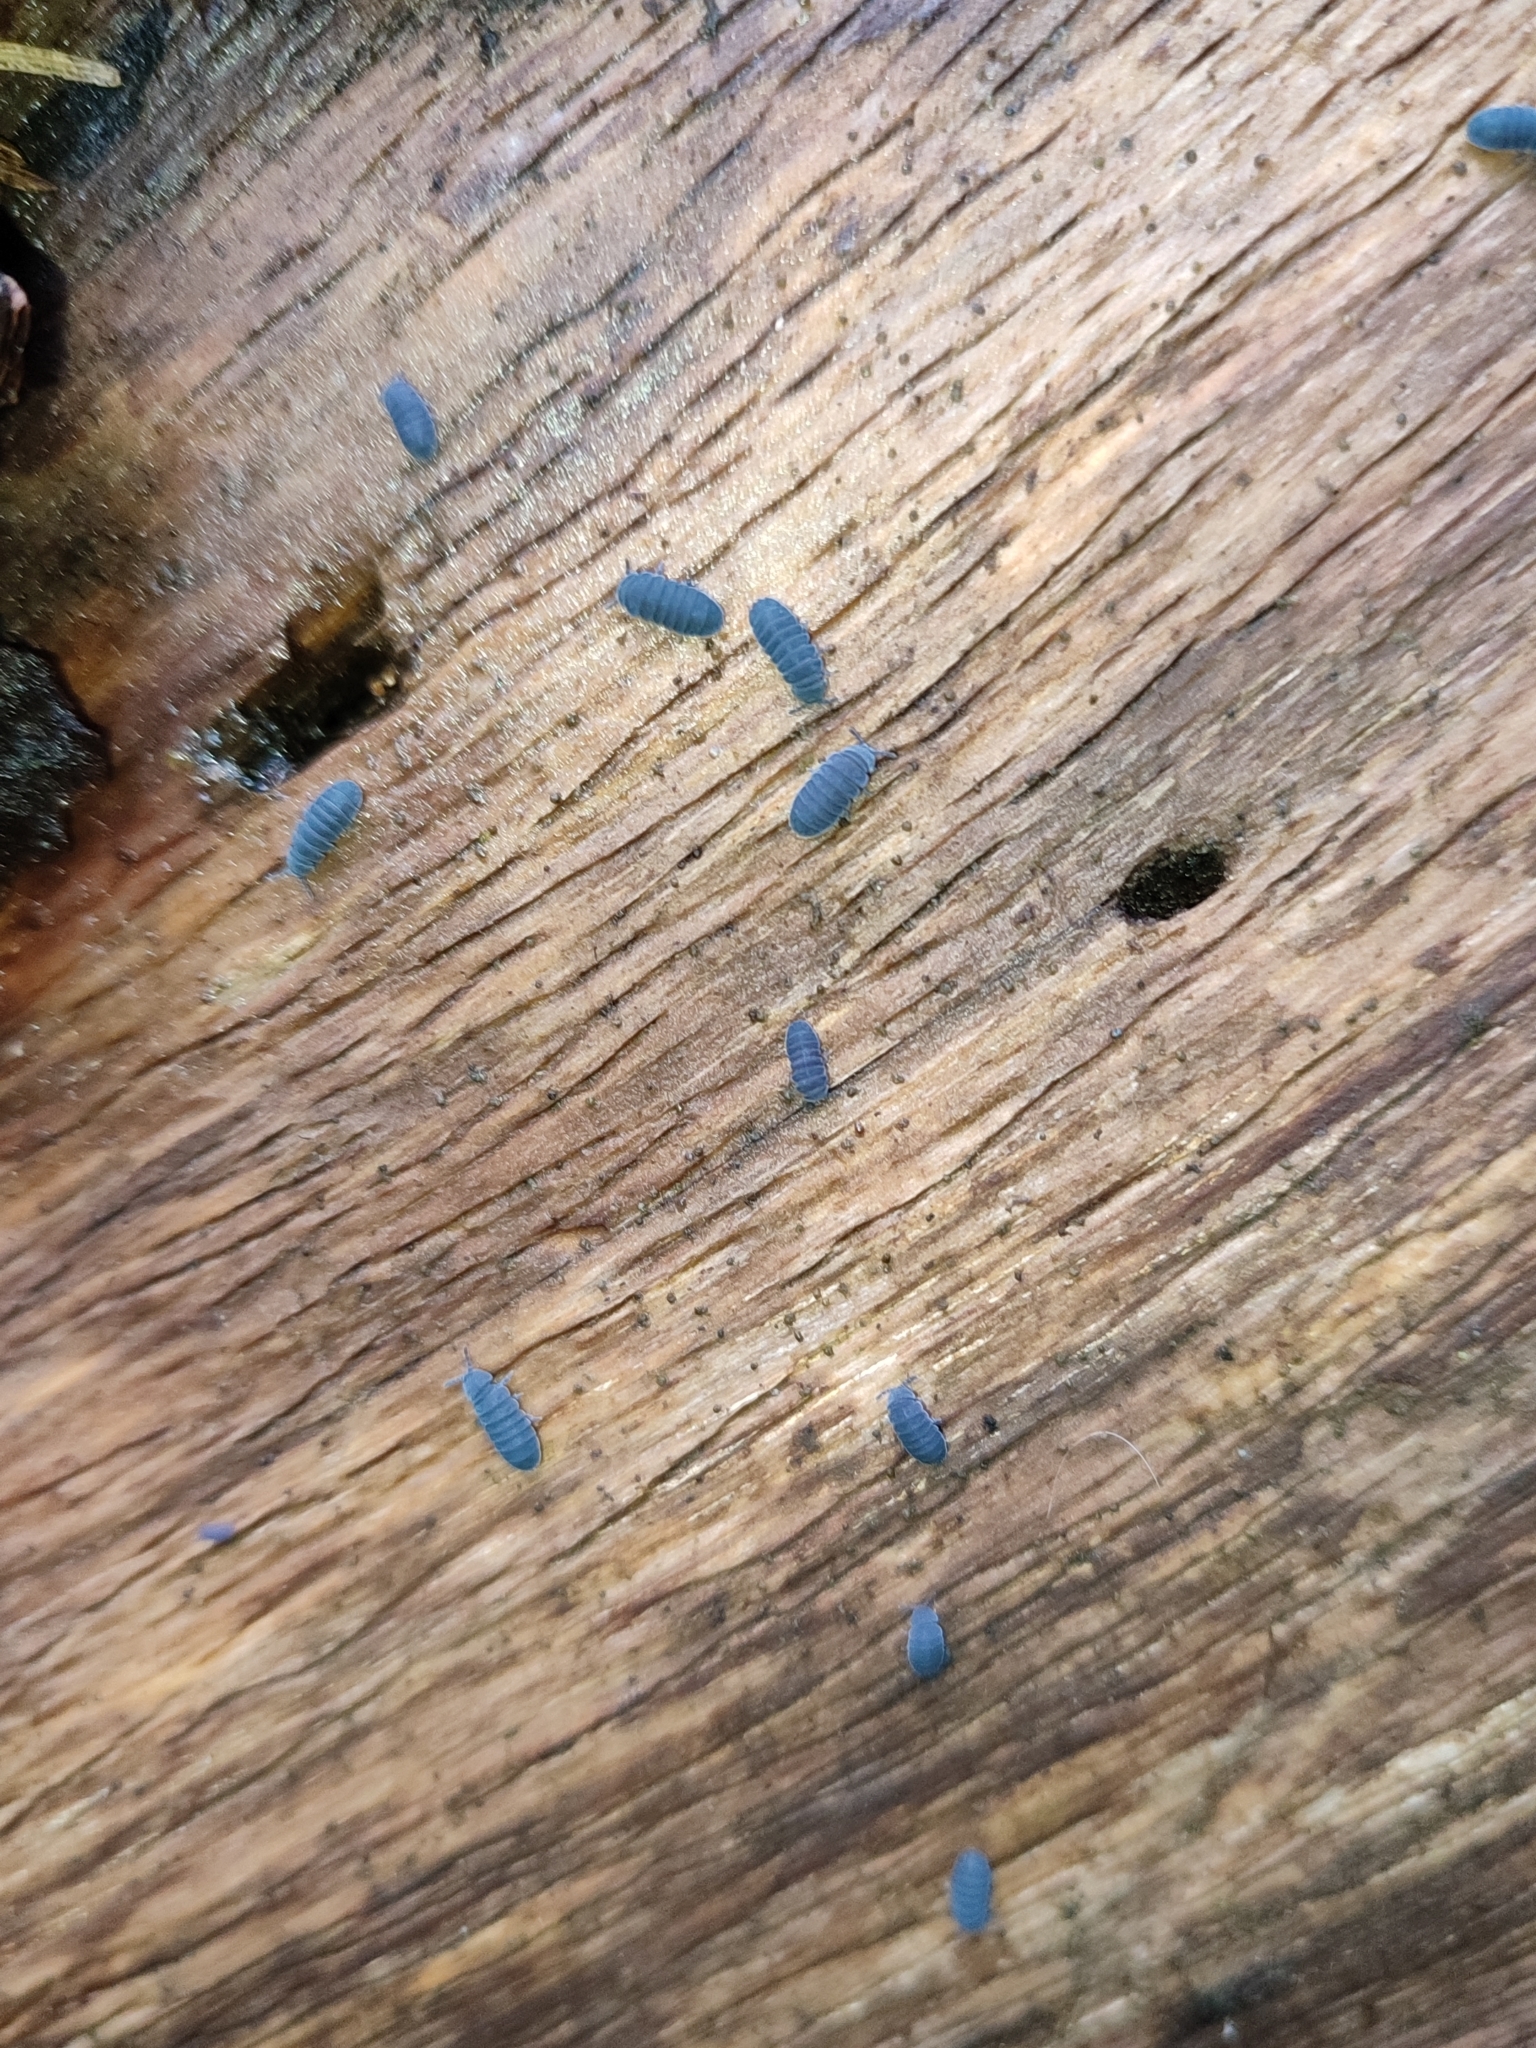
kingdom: Animalia
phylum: Arthropoda
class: Collembola
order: Poduromorpha
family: Onychiuridae
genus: Tetrodontophora
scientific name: Tetrodontophora bielanensis
